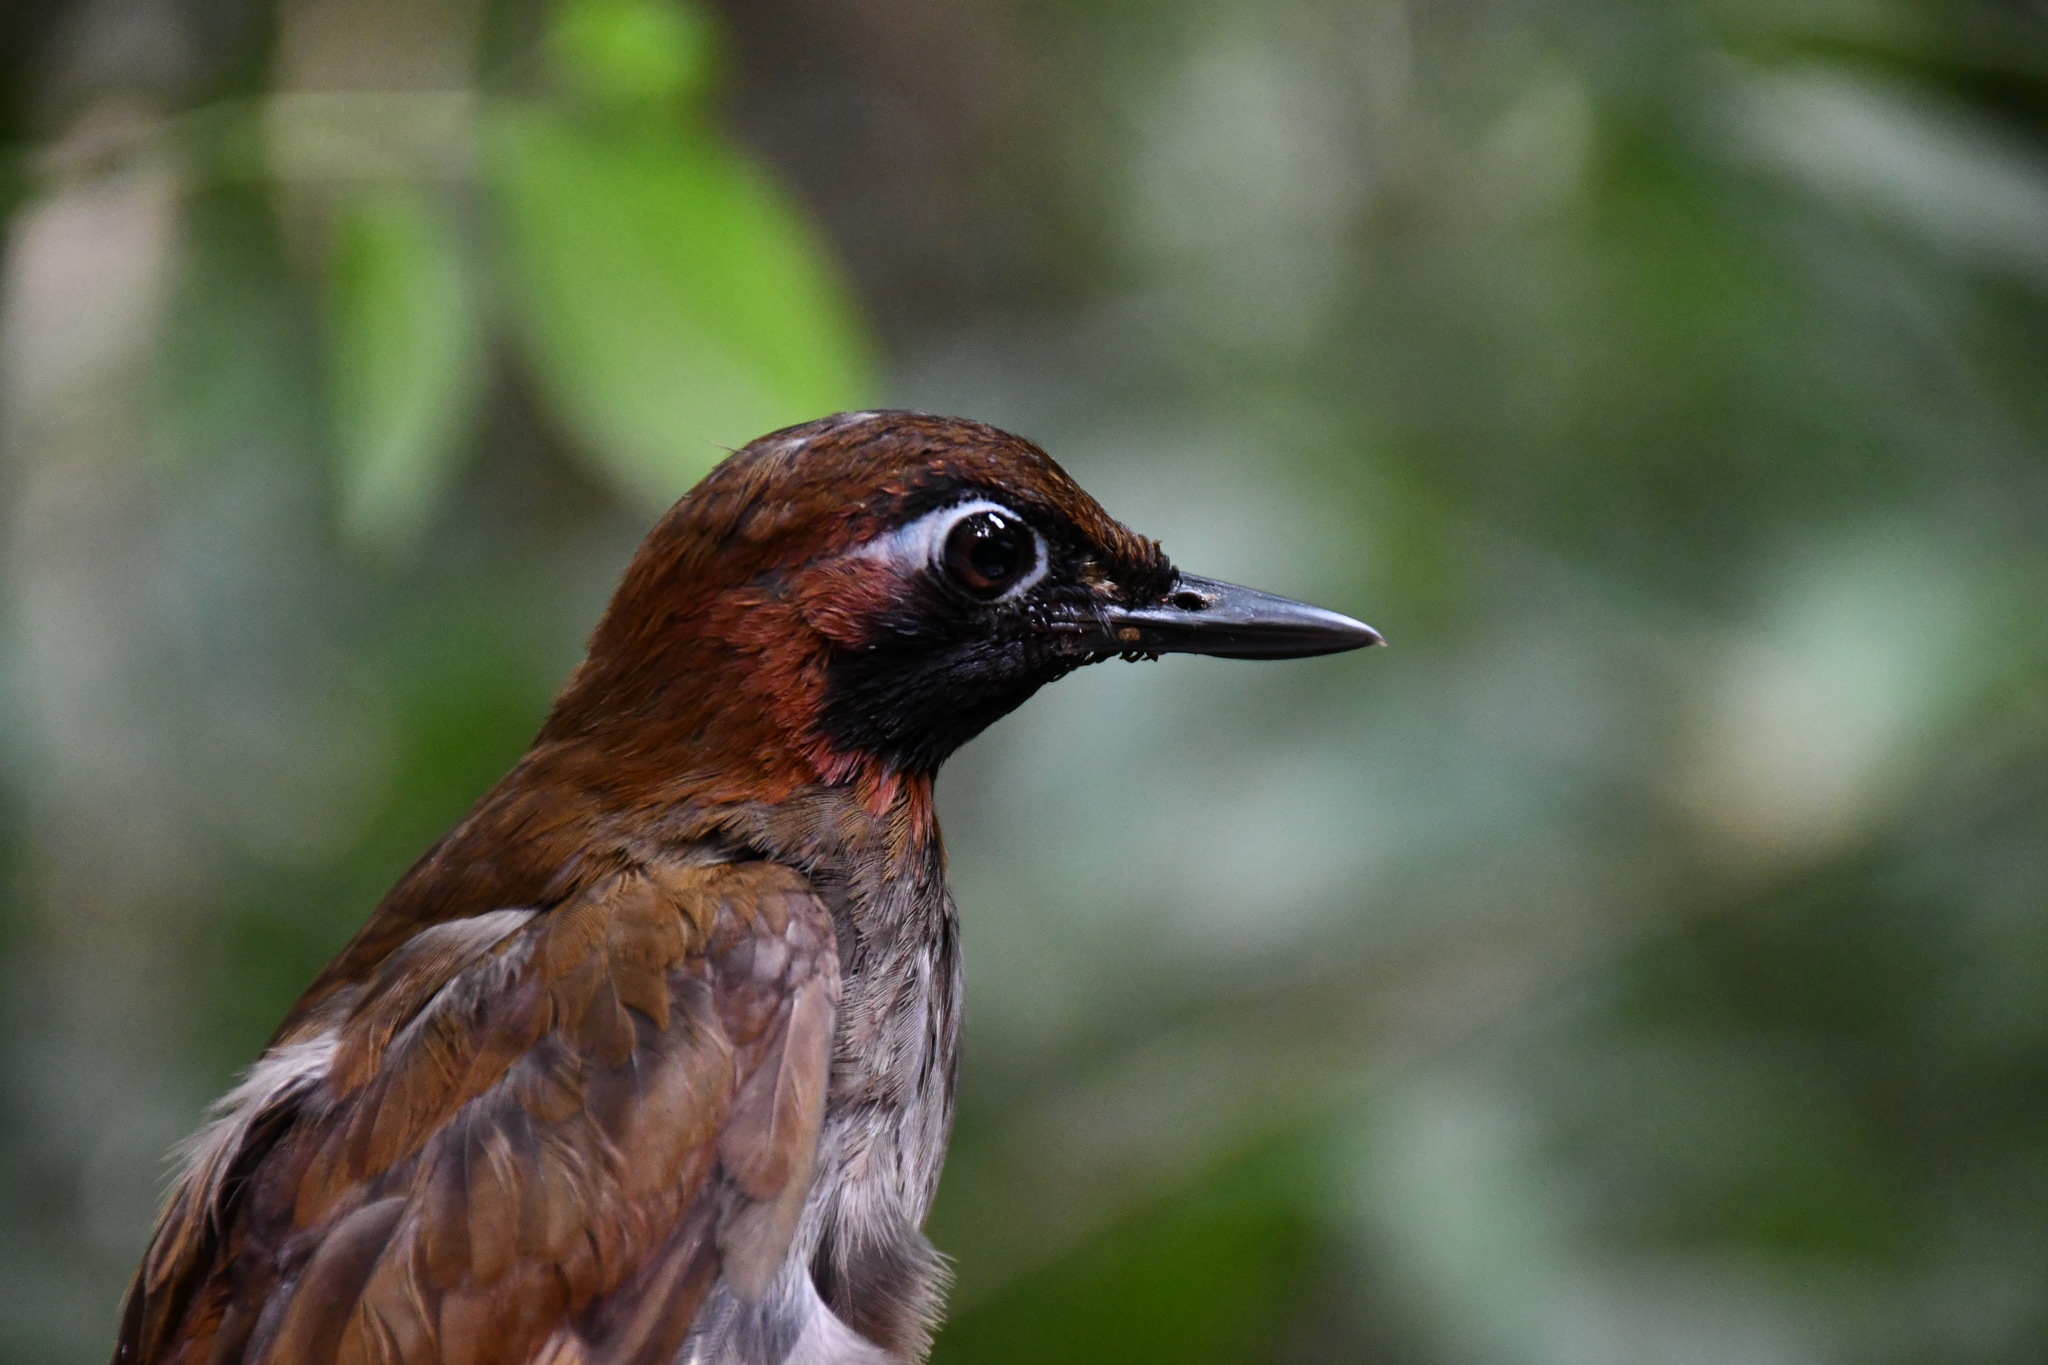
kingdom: Animalia
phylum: Chordata
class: Aves
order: Passeriformes
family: Formicariidae
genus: Formicarius
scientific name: Formicarius moniliger
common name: Mayan antthrush
